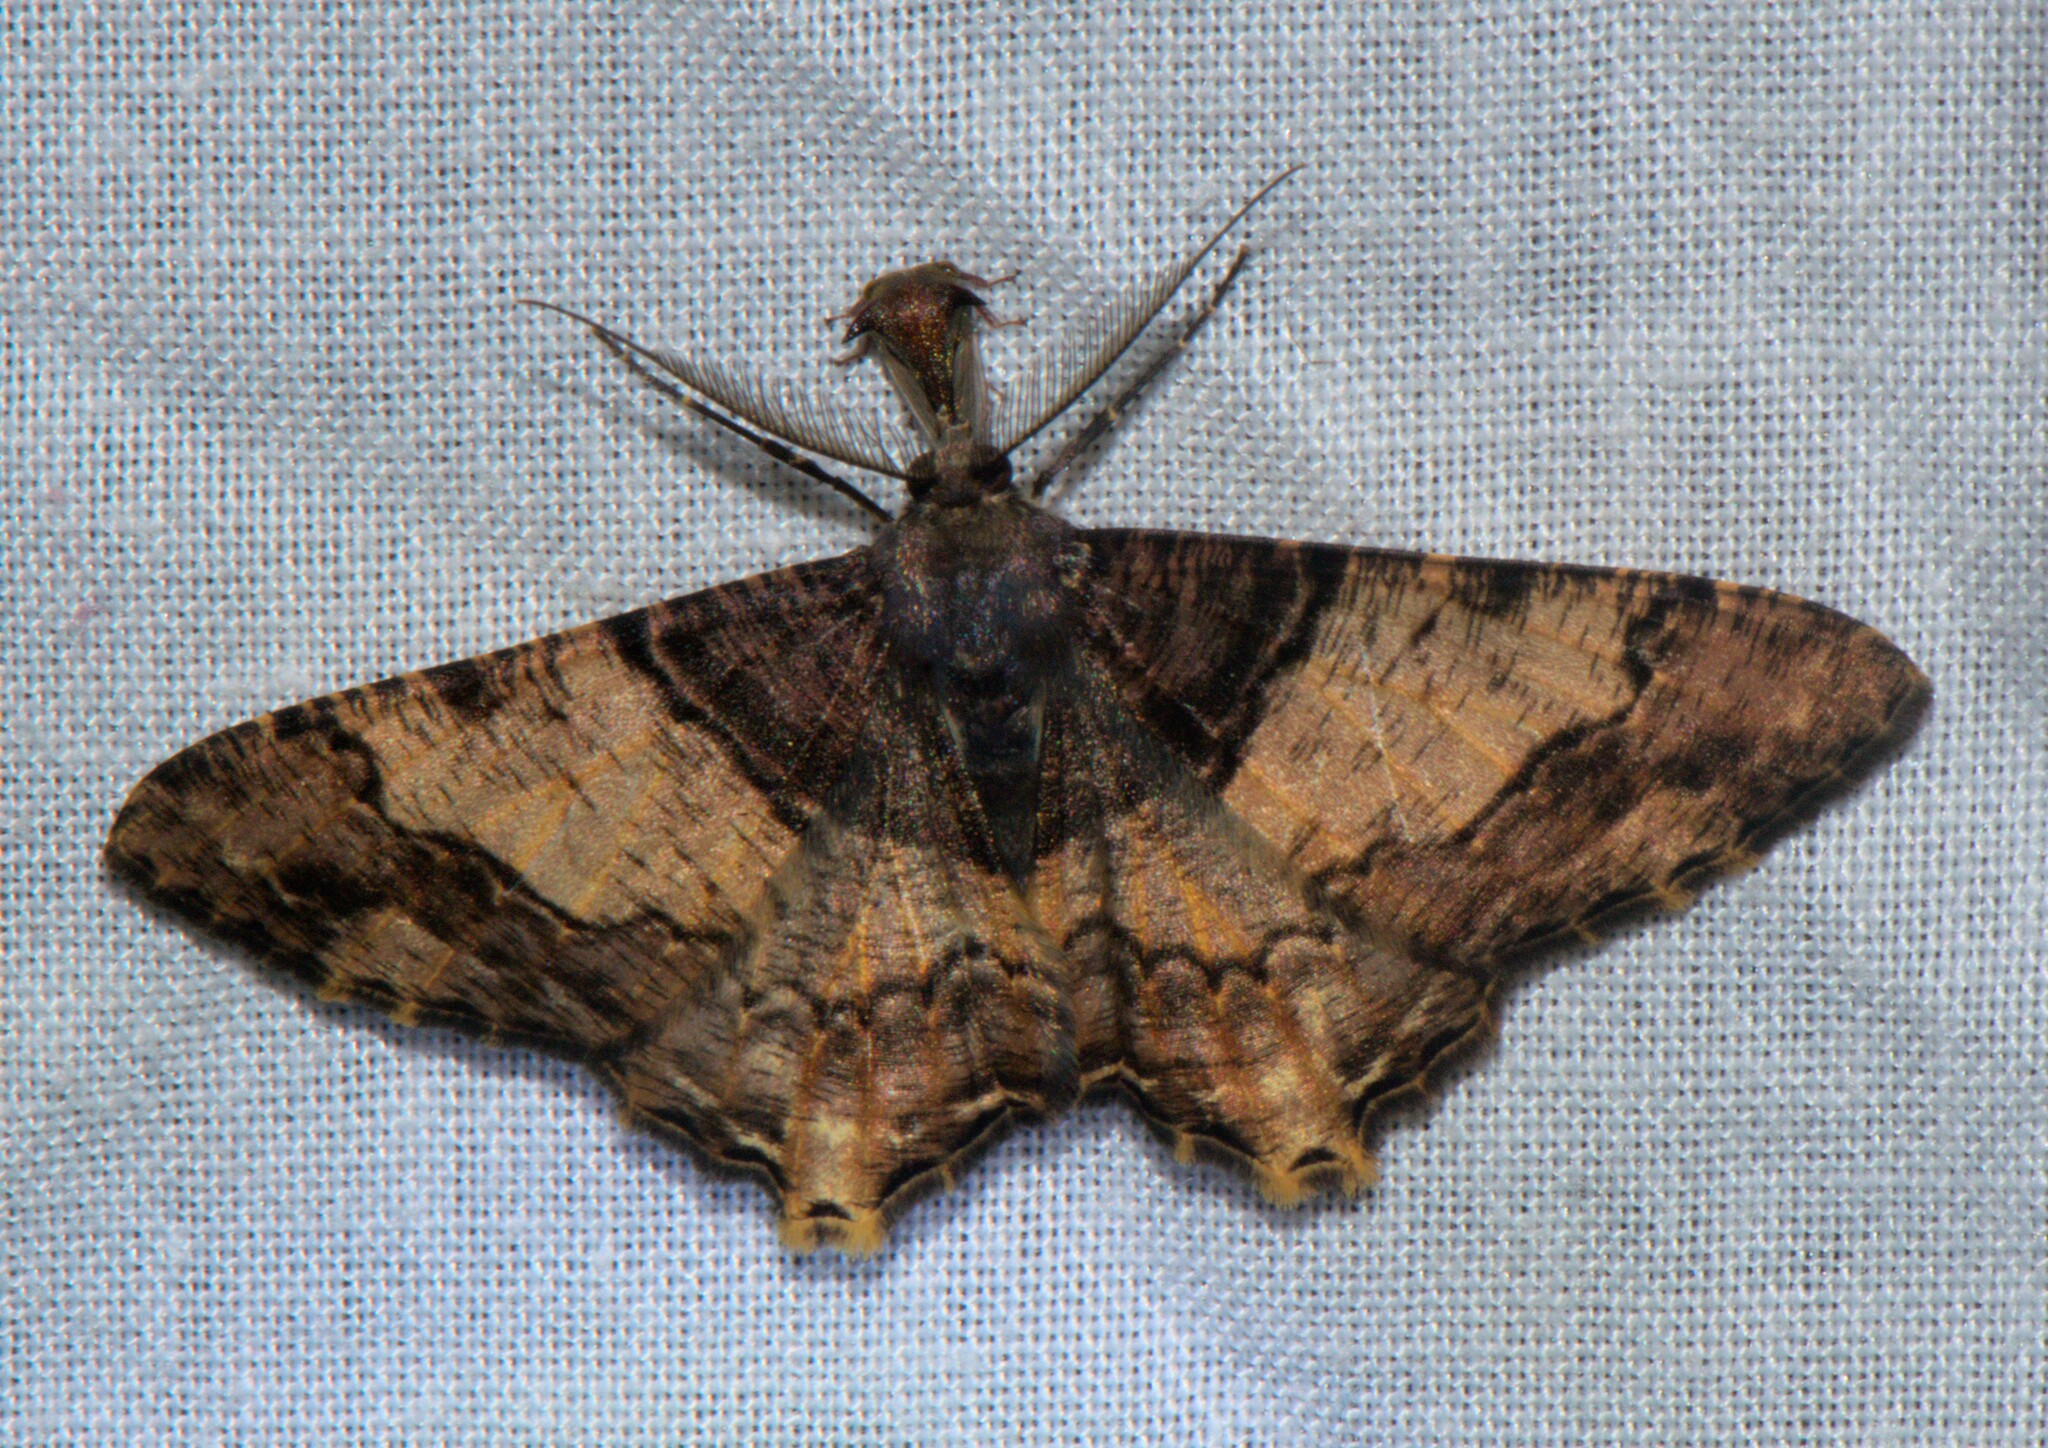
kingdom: Animalia
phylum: Arthropoda
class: Insecta
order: Lepidoptera
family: Geometridae
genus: Sinameda
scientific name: Sinameda basistrigaria
